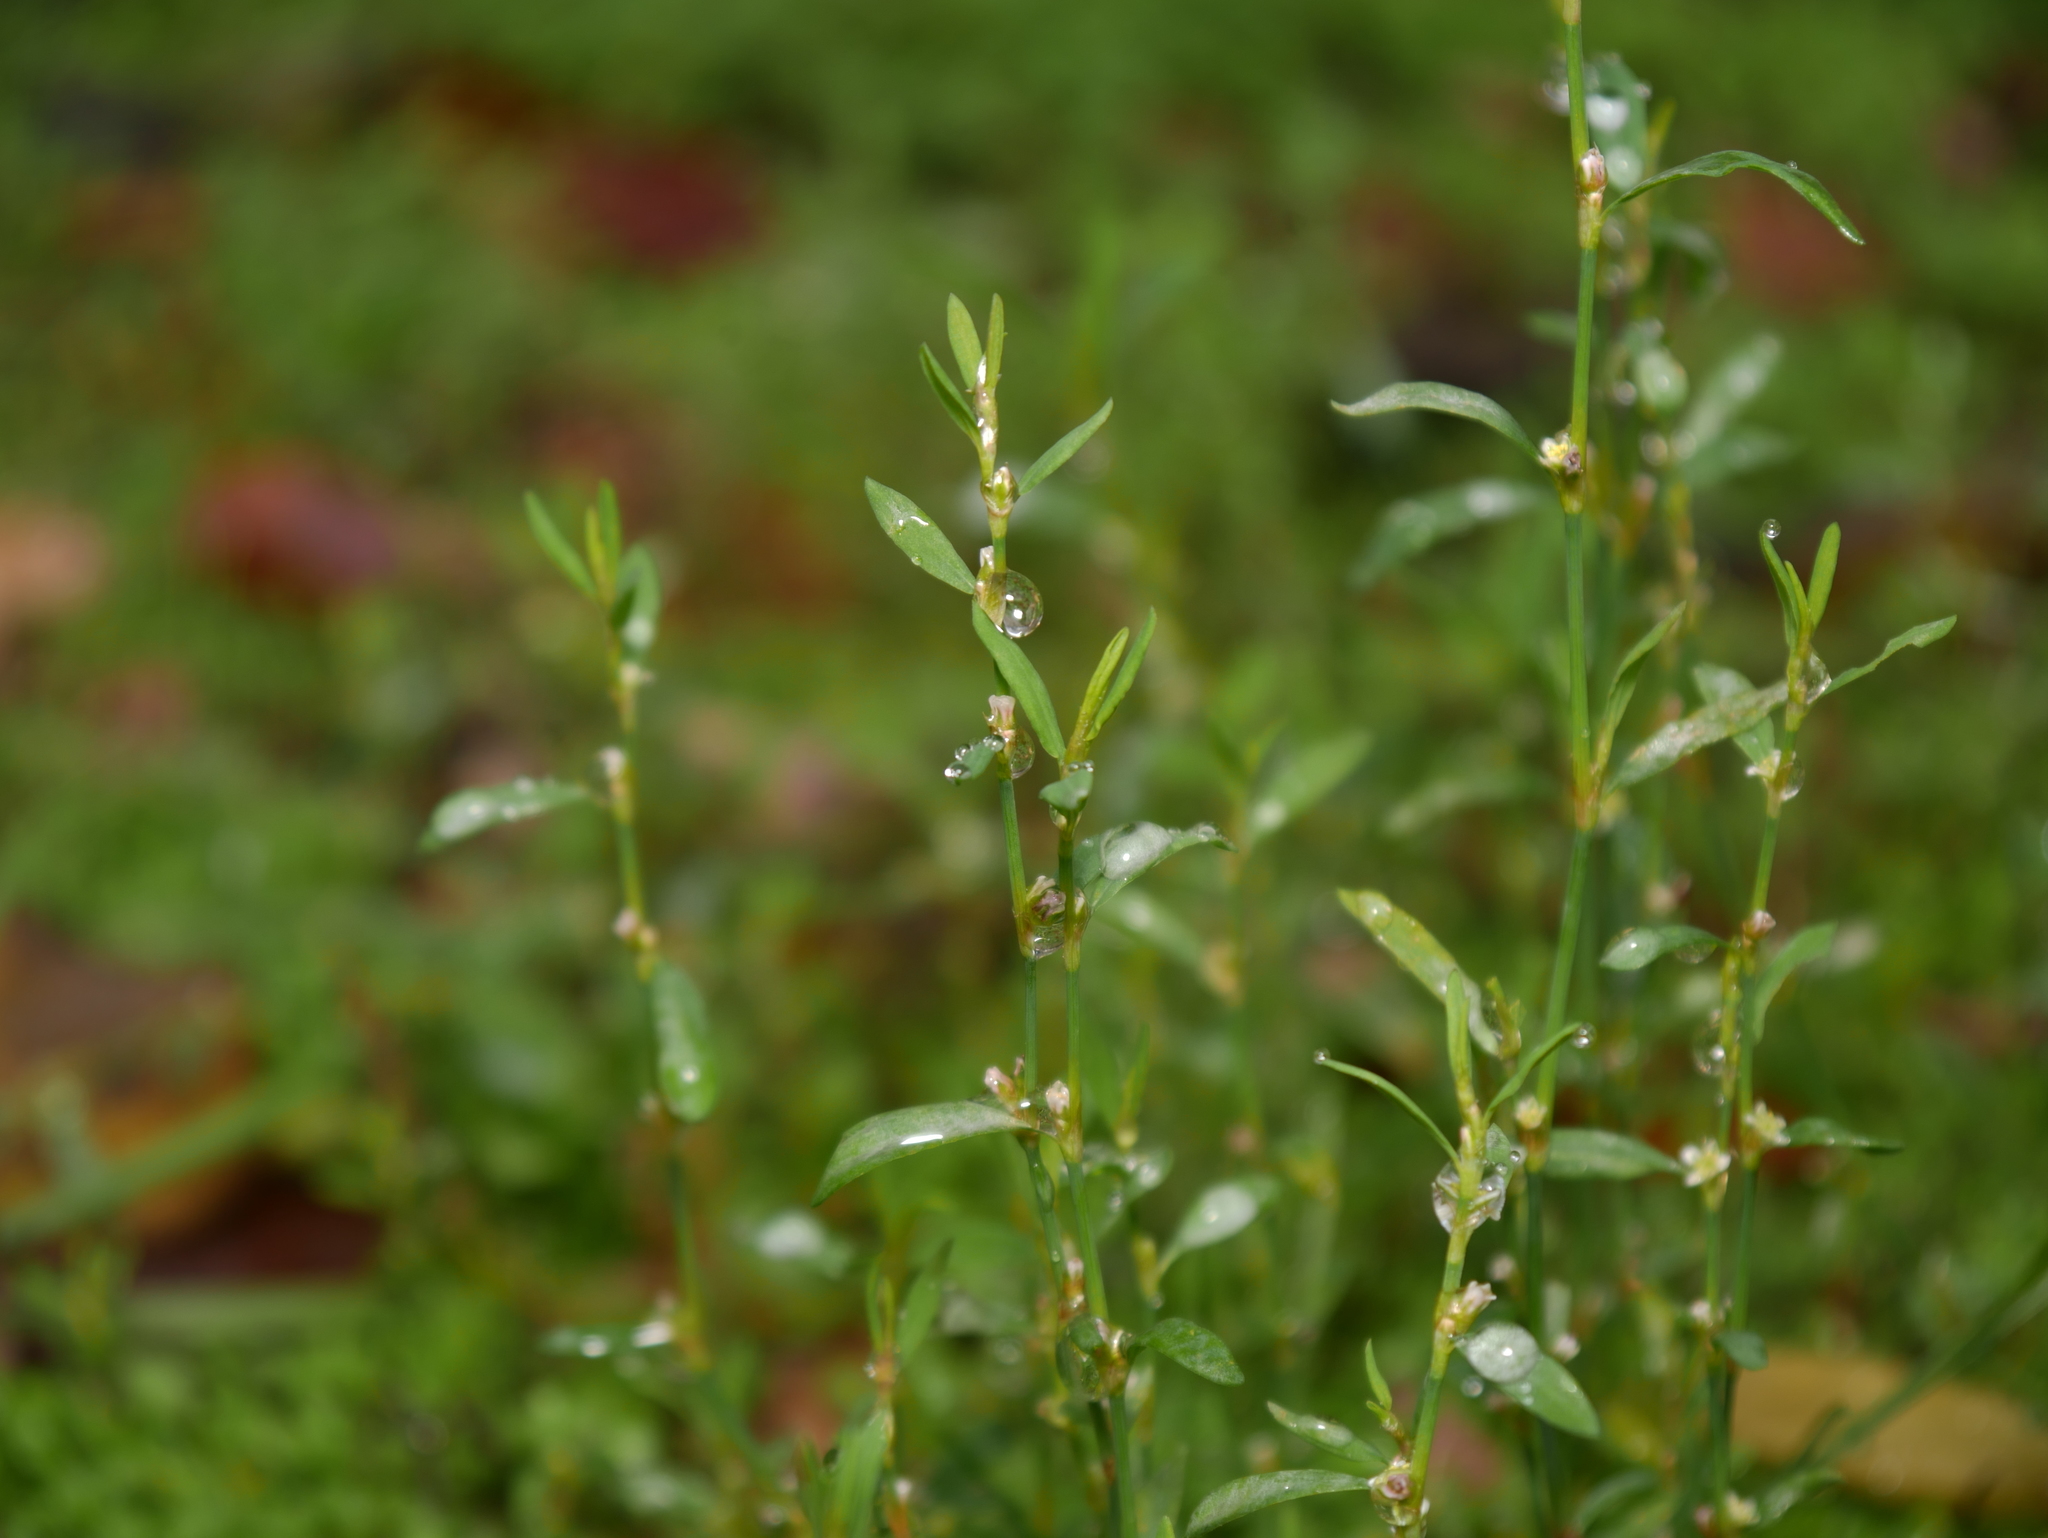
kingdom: Plantae
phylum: Tracheophyta
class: Magnoliopsida
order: Caryophyllales
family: Polygonaceae
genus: Polygonum
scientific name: Polygonum aviculare
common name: Prostrate knotweed
